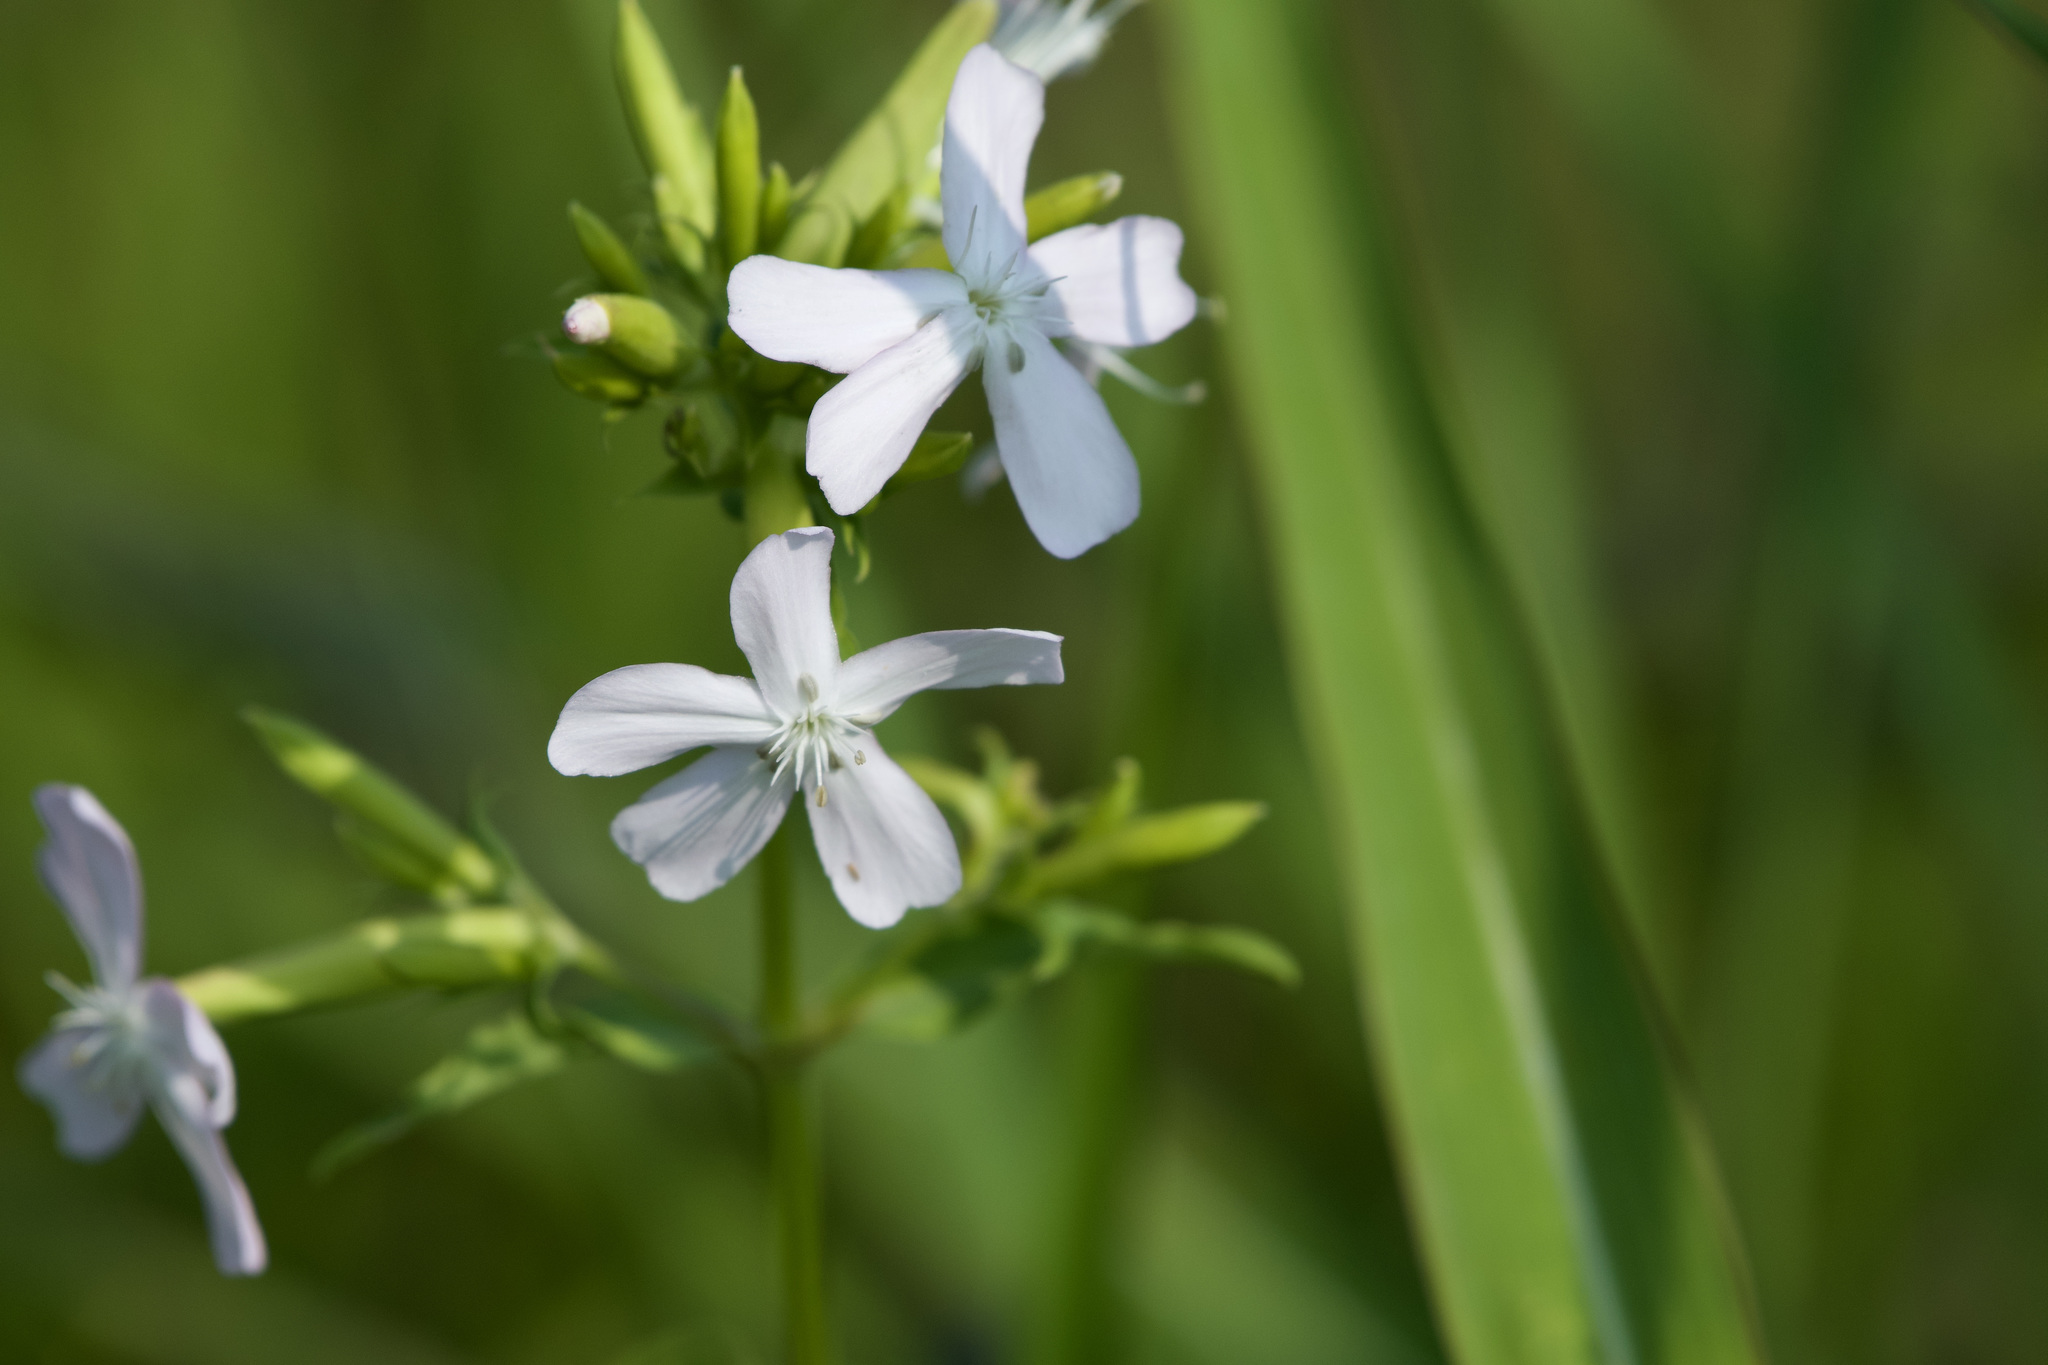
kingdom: Plantae
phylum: Tracheophyta
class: Magnoliopsida
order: Caryophyllales
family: Caryophyllaceae
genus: Saponaria
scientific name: Saponaria officinalis
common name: Soapwort
